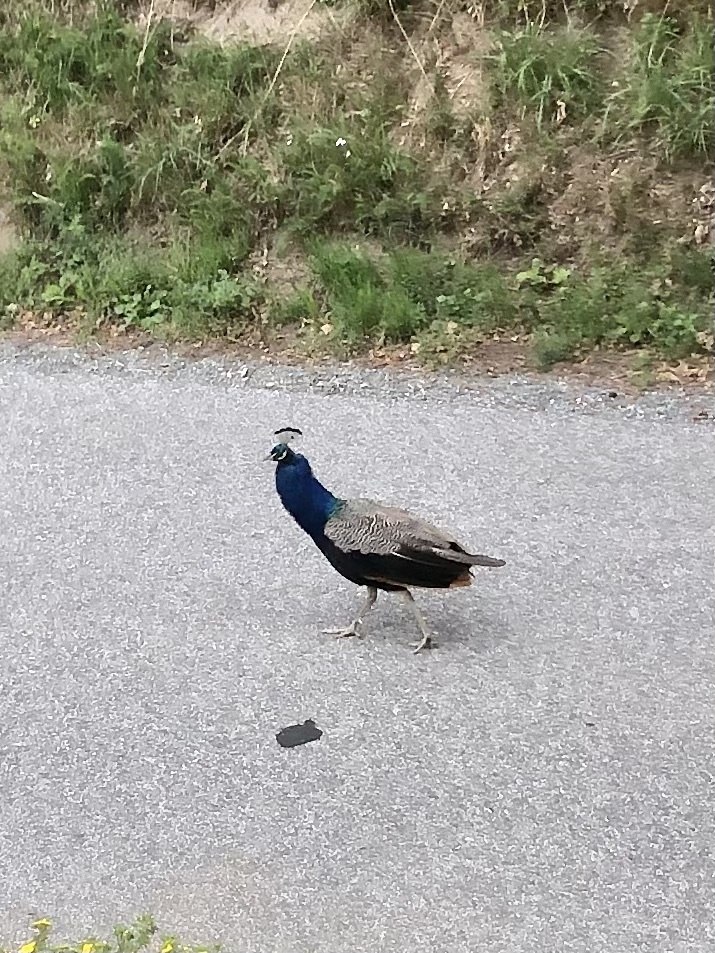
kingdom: Animalia
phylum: Chordata
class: Aves
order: Galliformes
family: Phasianidae
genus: Pavo
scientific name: Pavo cristatus
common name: Indian peafowl
